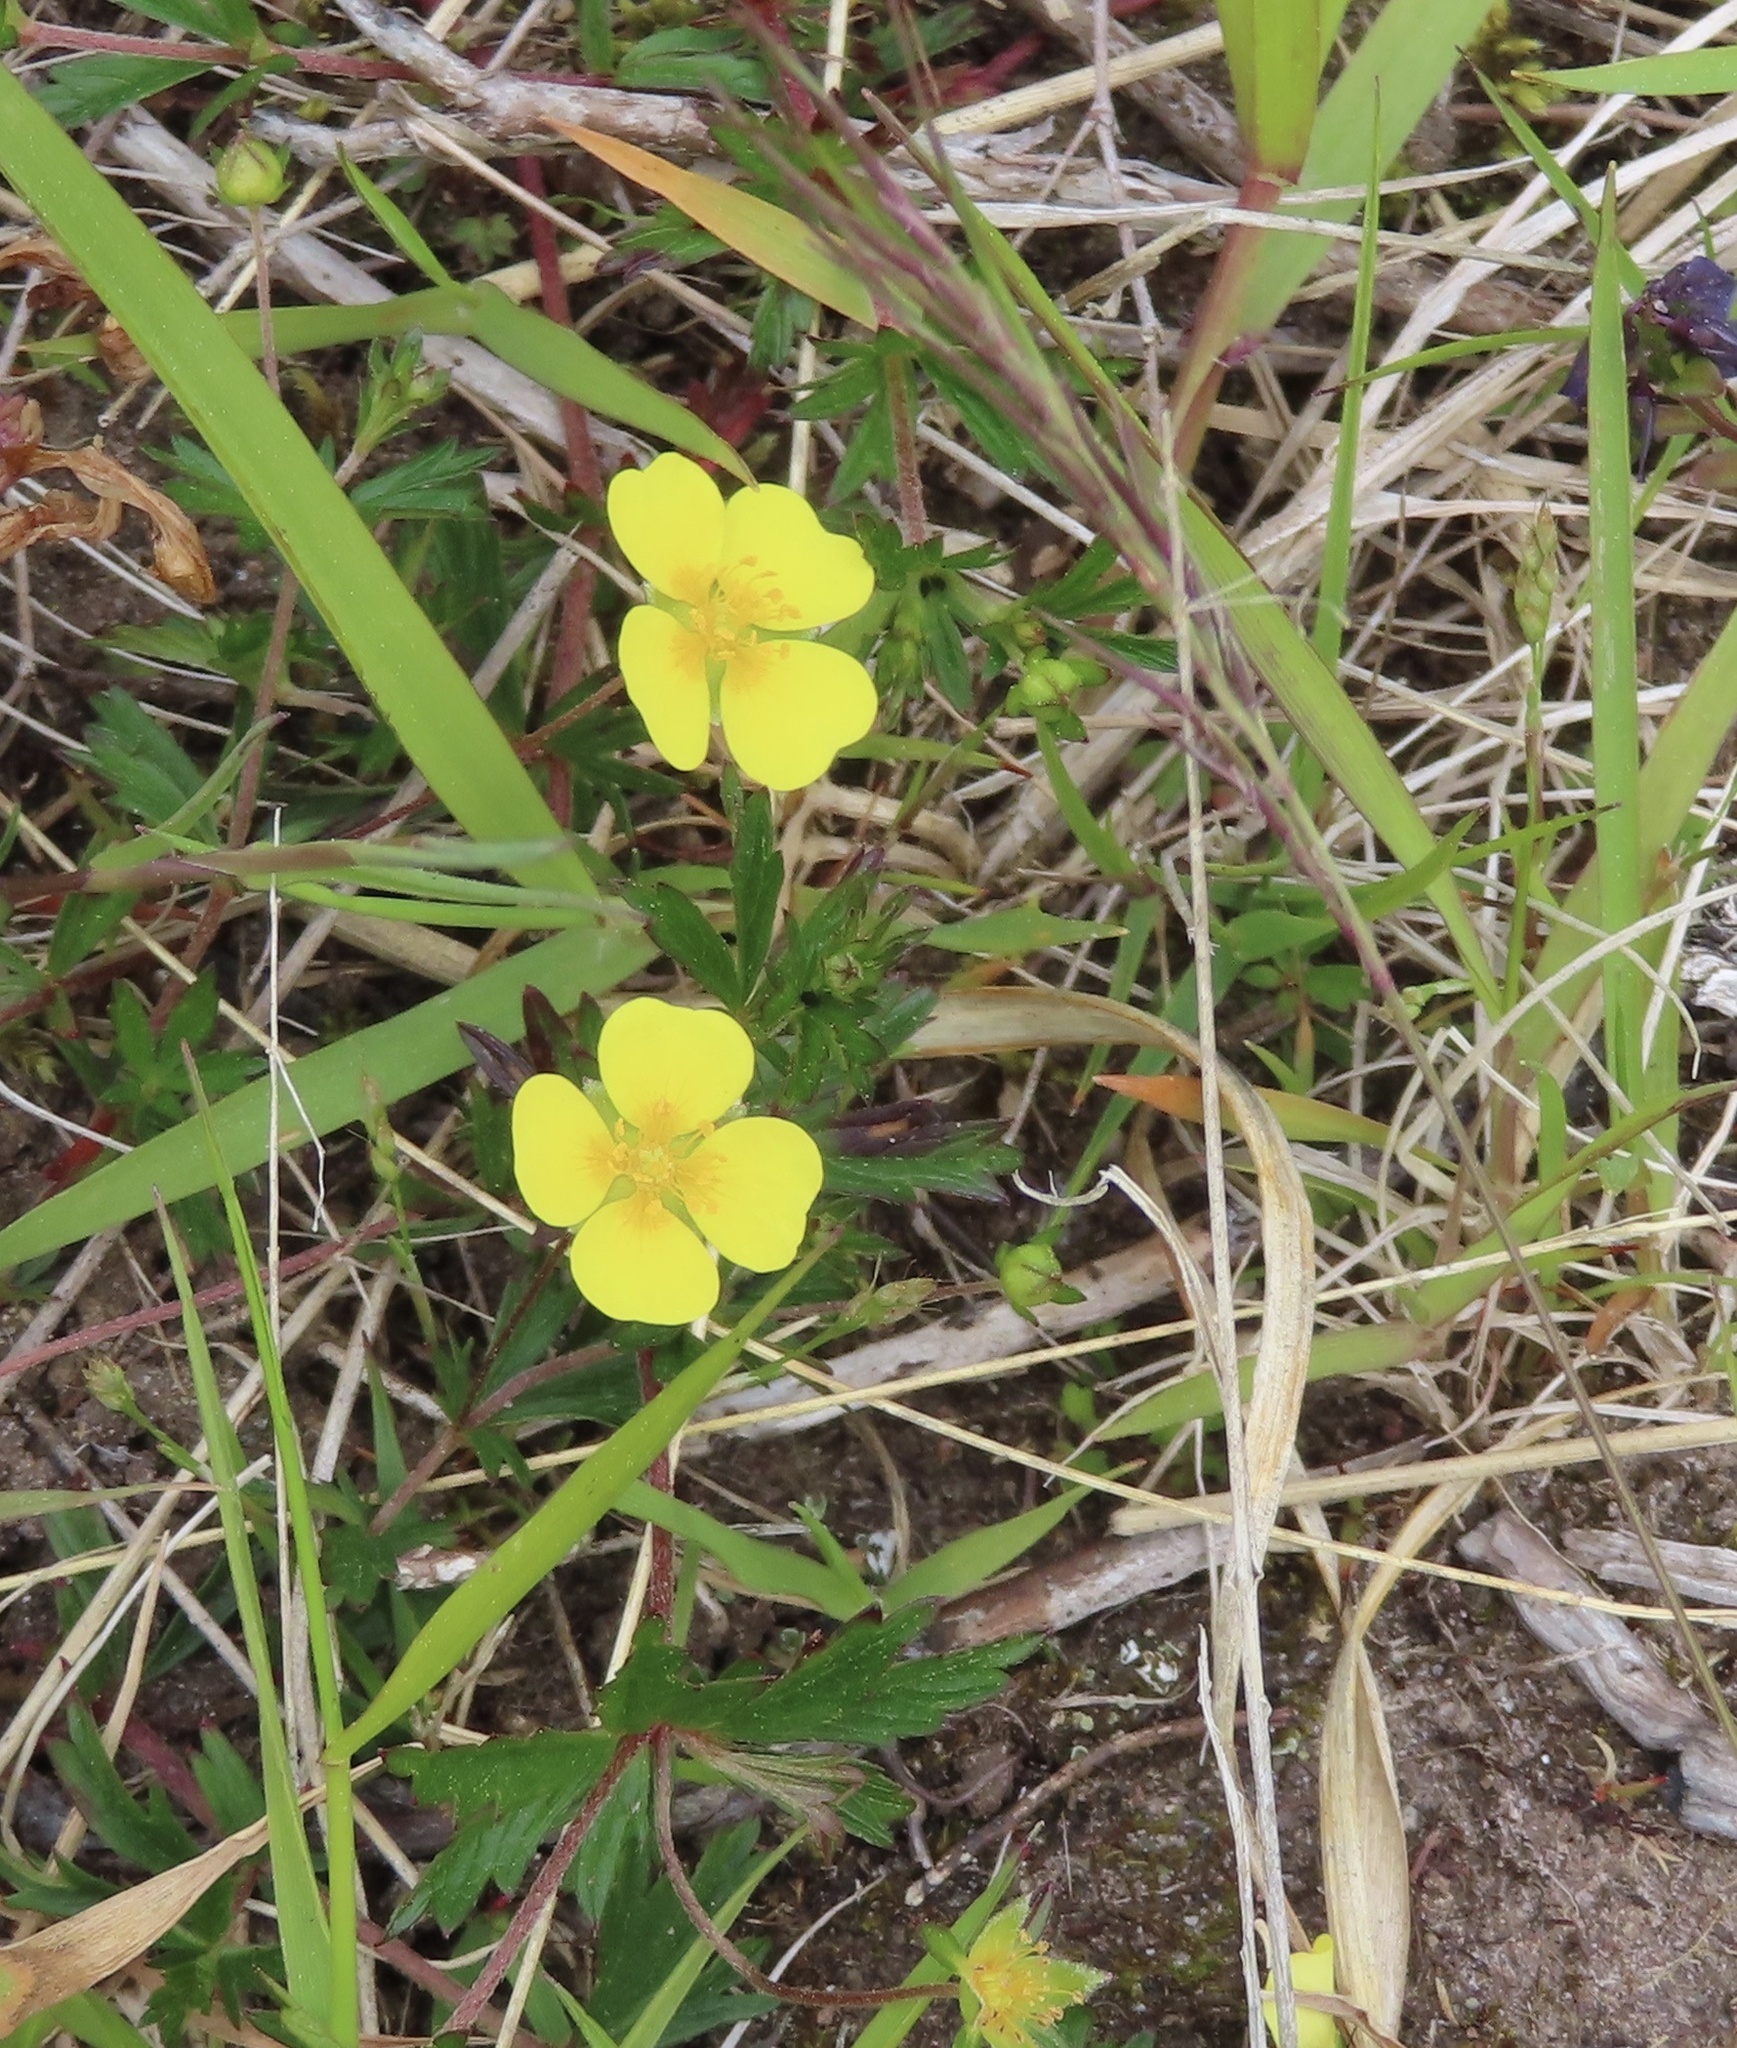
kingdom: Plantae
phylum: Tracheophyta
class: Magnoliopsida
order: Rosales
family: Rosaceae
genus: Potentilla
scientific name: Potentilla erecta
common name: Tormentil
